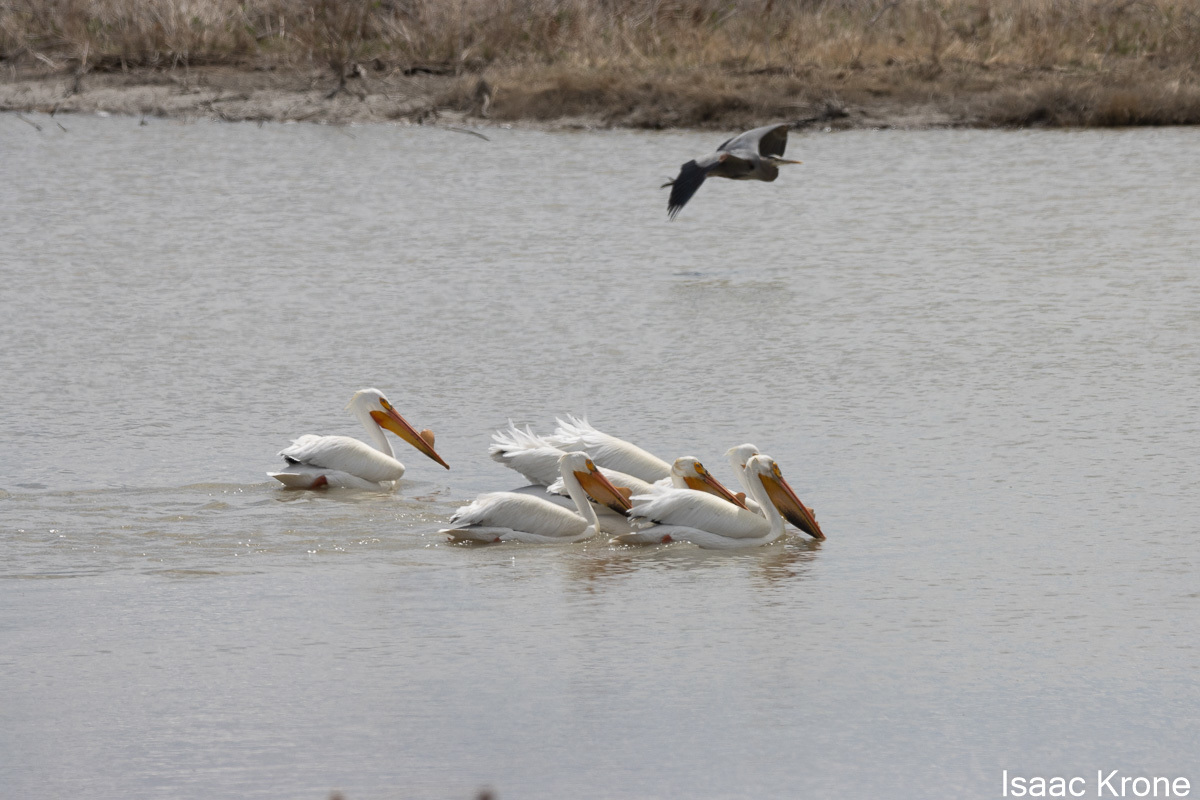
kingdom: Animalia
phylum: Chordata
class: Aves
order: Pelecaniformes
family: Pelecanidae
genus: Pelecanus
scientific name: Pelecanus erythrorhynchos
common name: American white pelican
